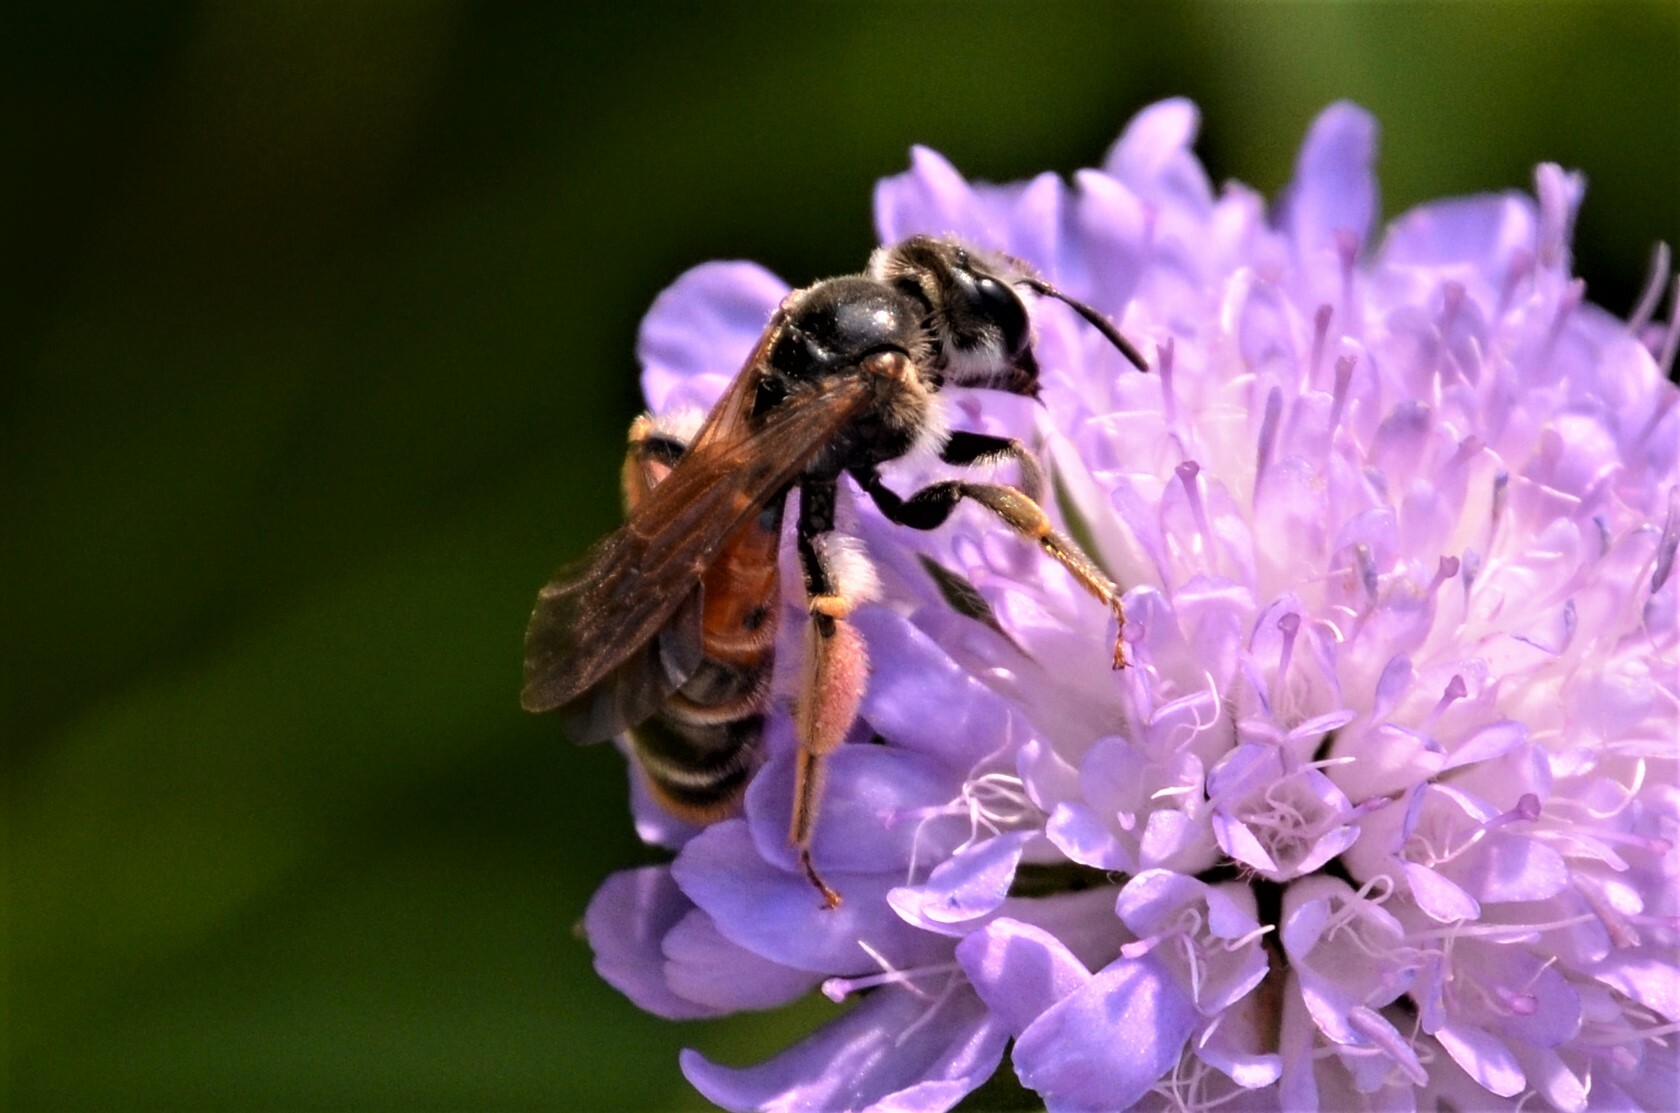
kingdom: Animalia
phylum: Arthropoda
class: Insecta
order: Hymenoptera
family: Andrenidae
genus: Andrena
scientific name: Andrena hattorfiana
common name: Large scabious mining bee
